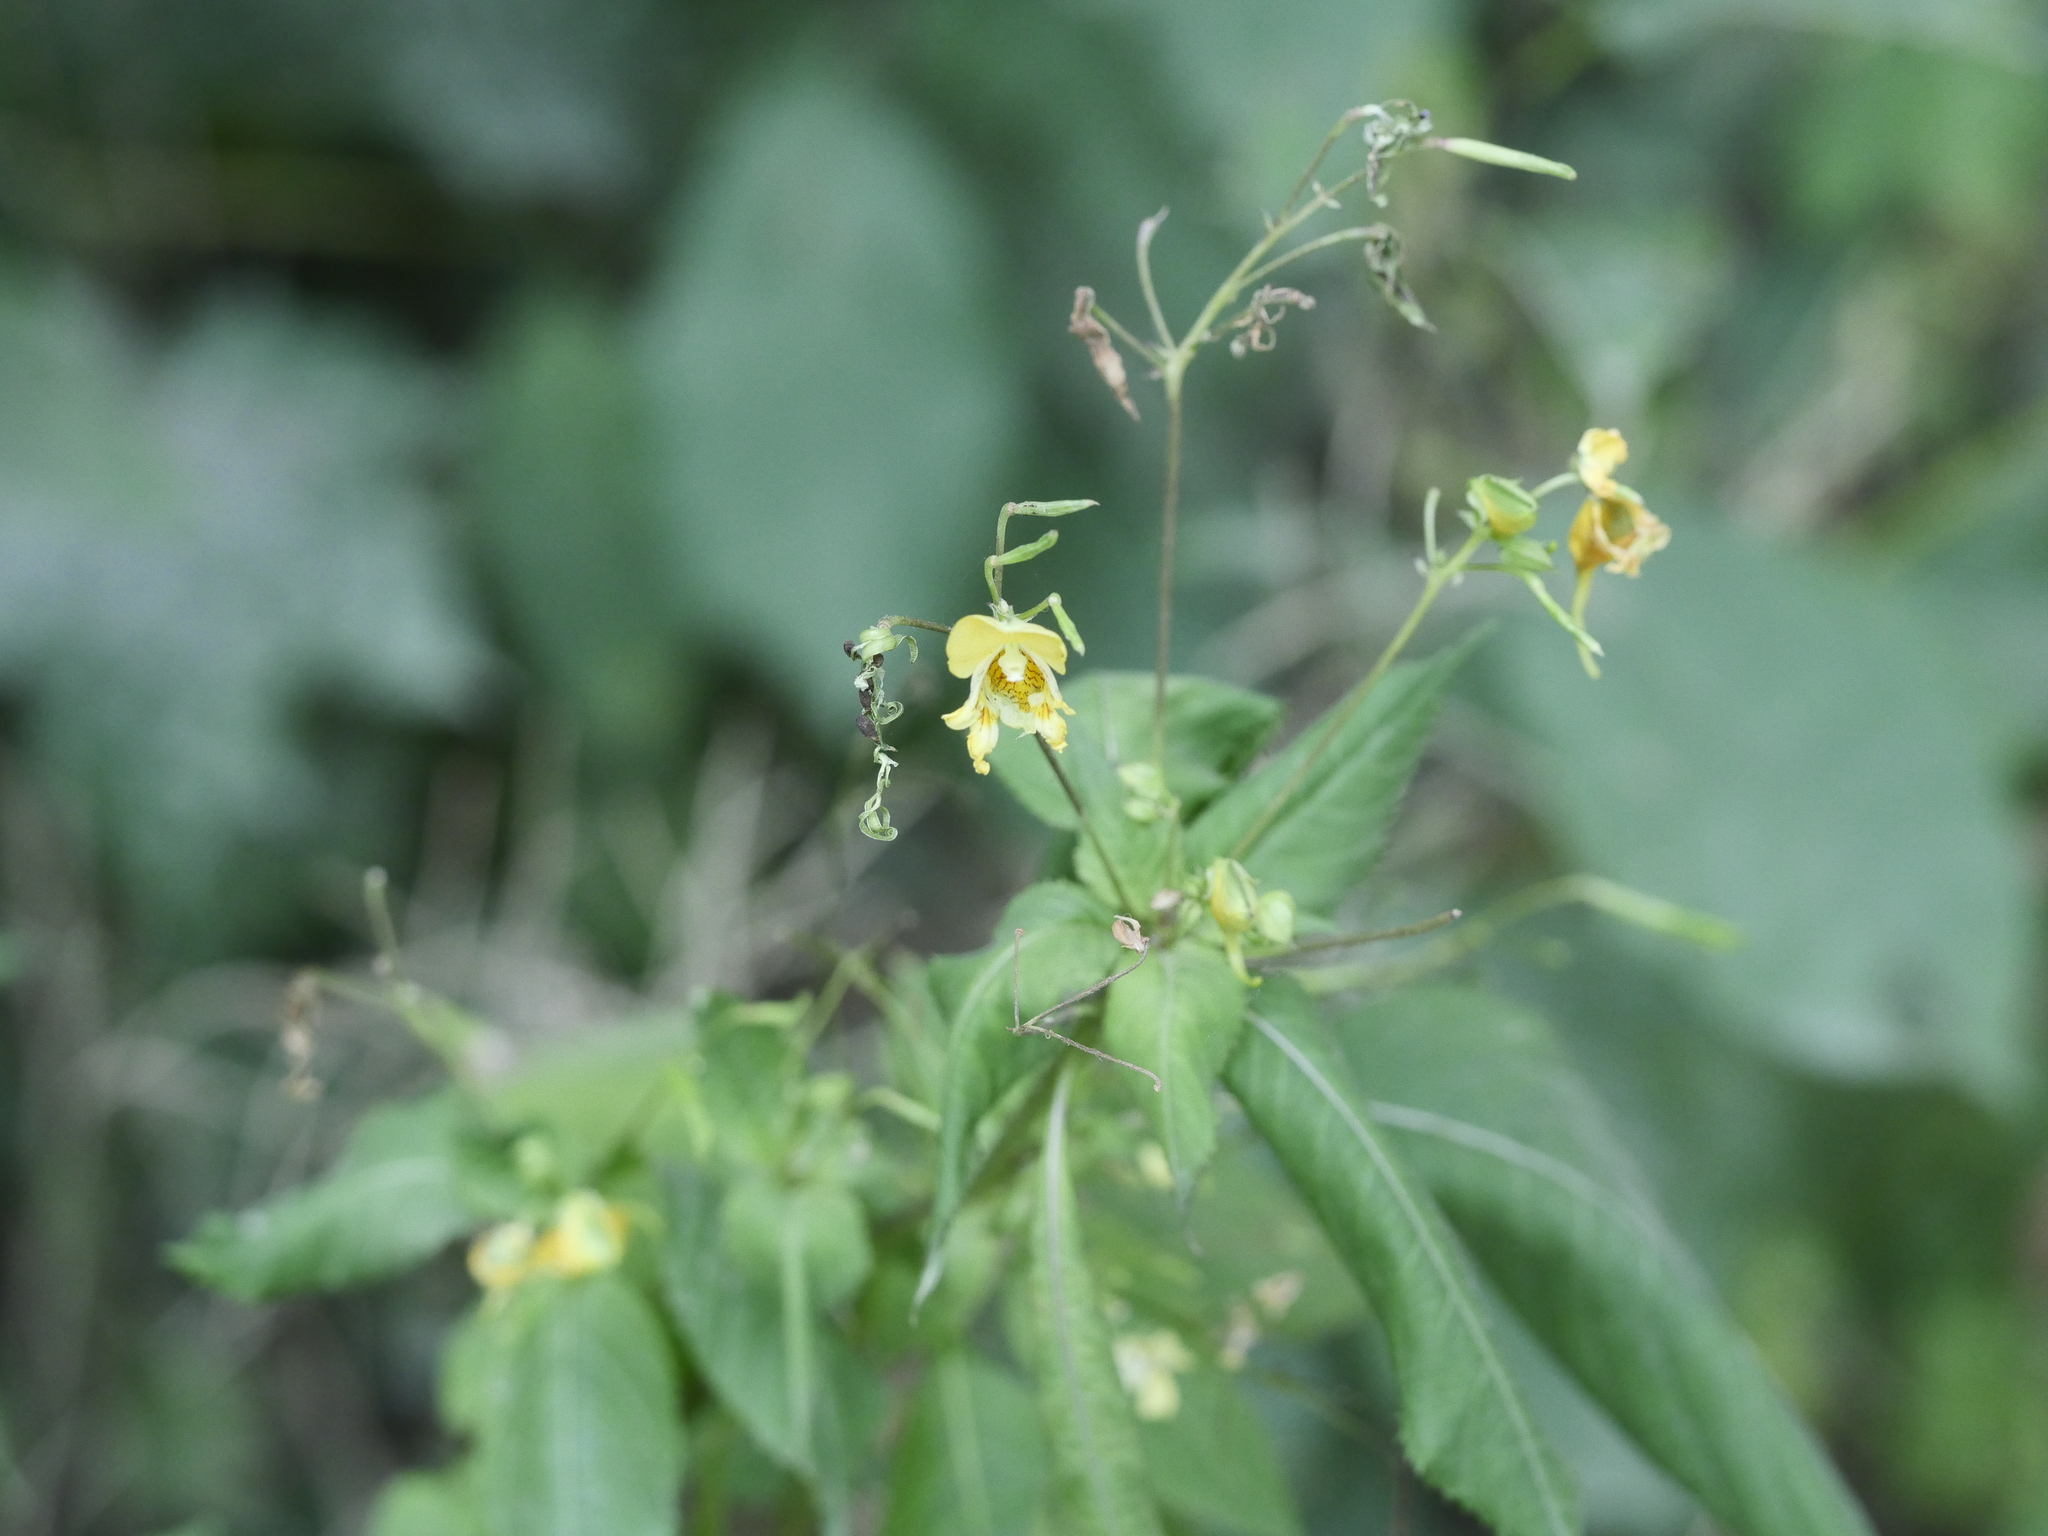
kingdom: Plantae
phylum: Tracheophyta
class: Magnoliopsida
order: Ericales
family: Balsaminaceae
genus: Impatiens
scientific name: Impatiens parviflora
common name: Small balsam
